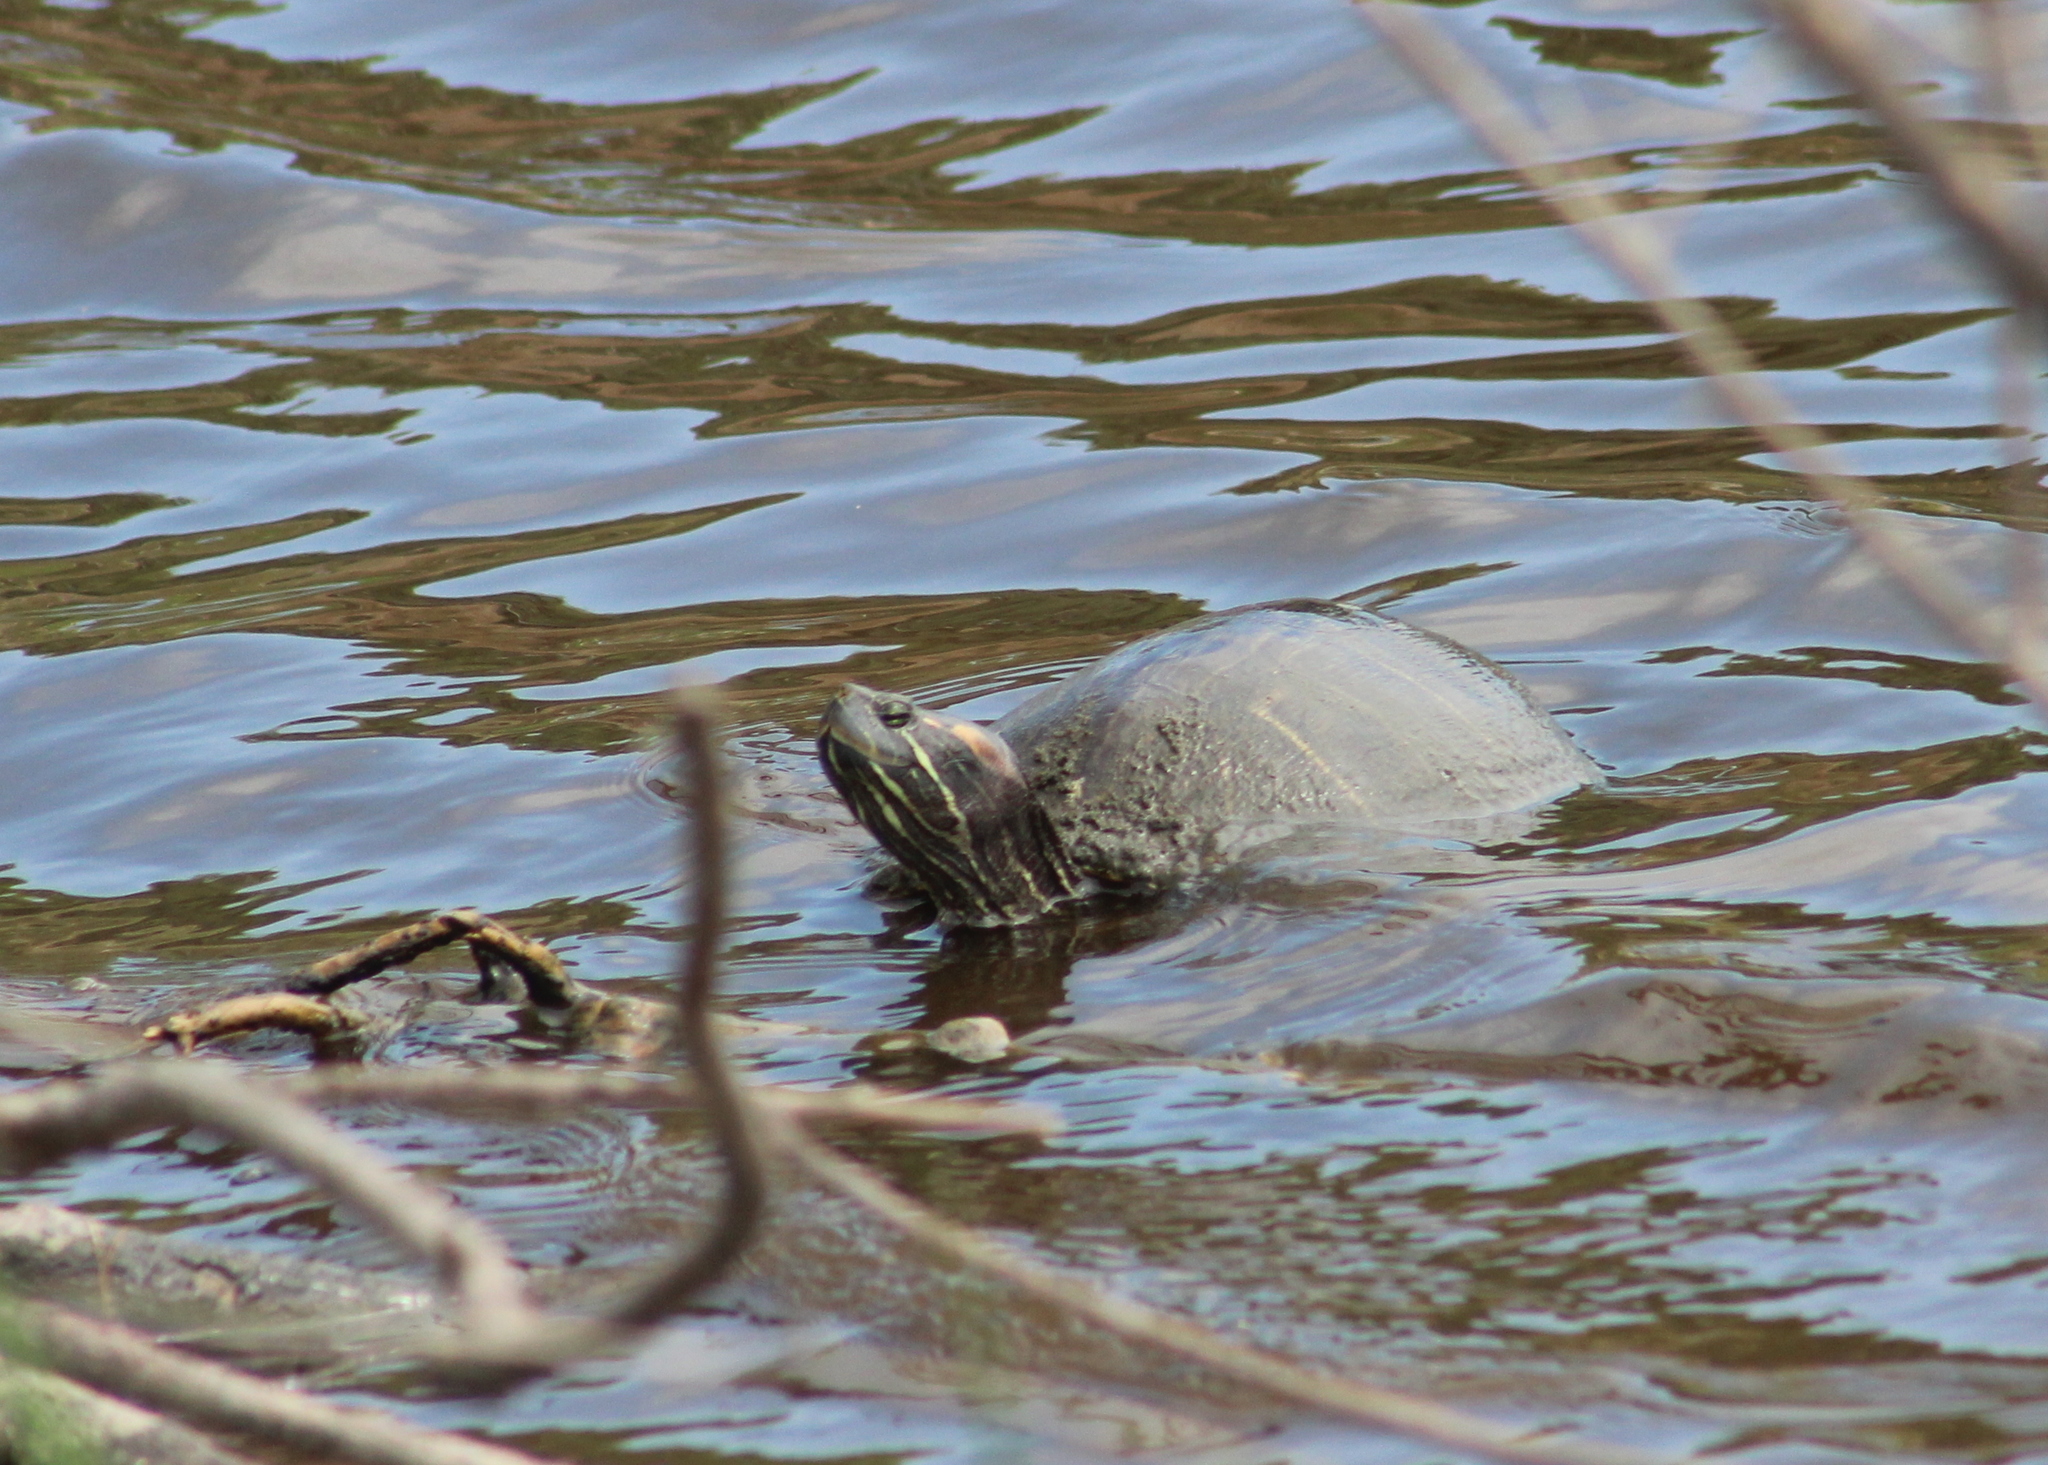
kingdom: Animalia
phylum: Chordata
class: Testudines
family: Emydidae
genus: Trachemys
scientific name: Trachemys scripta
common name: Slider
